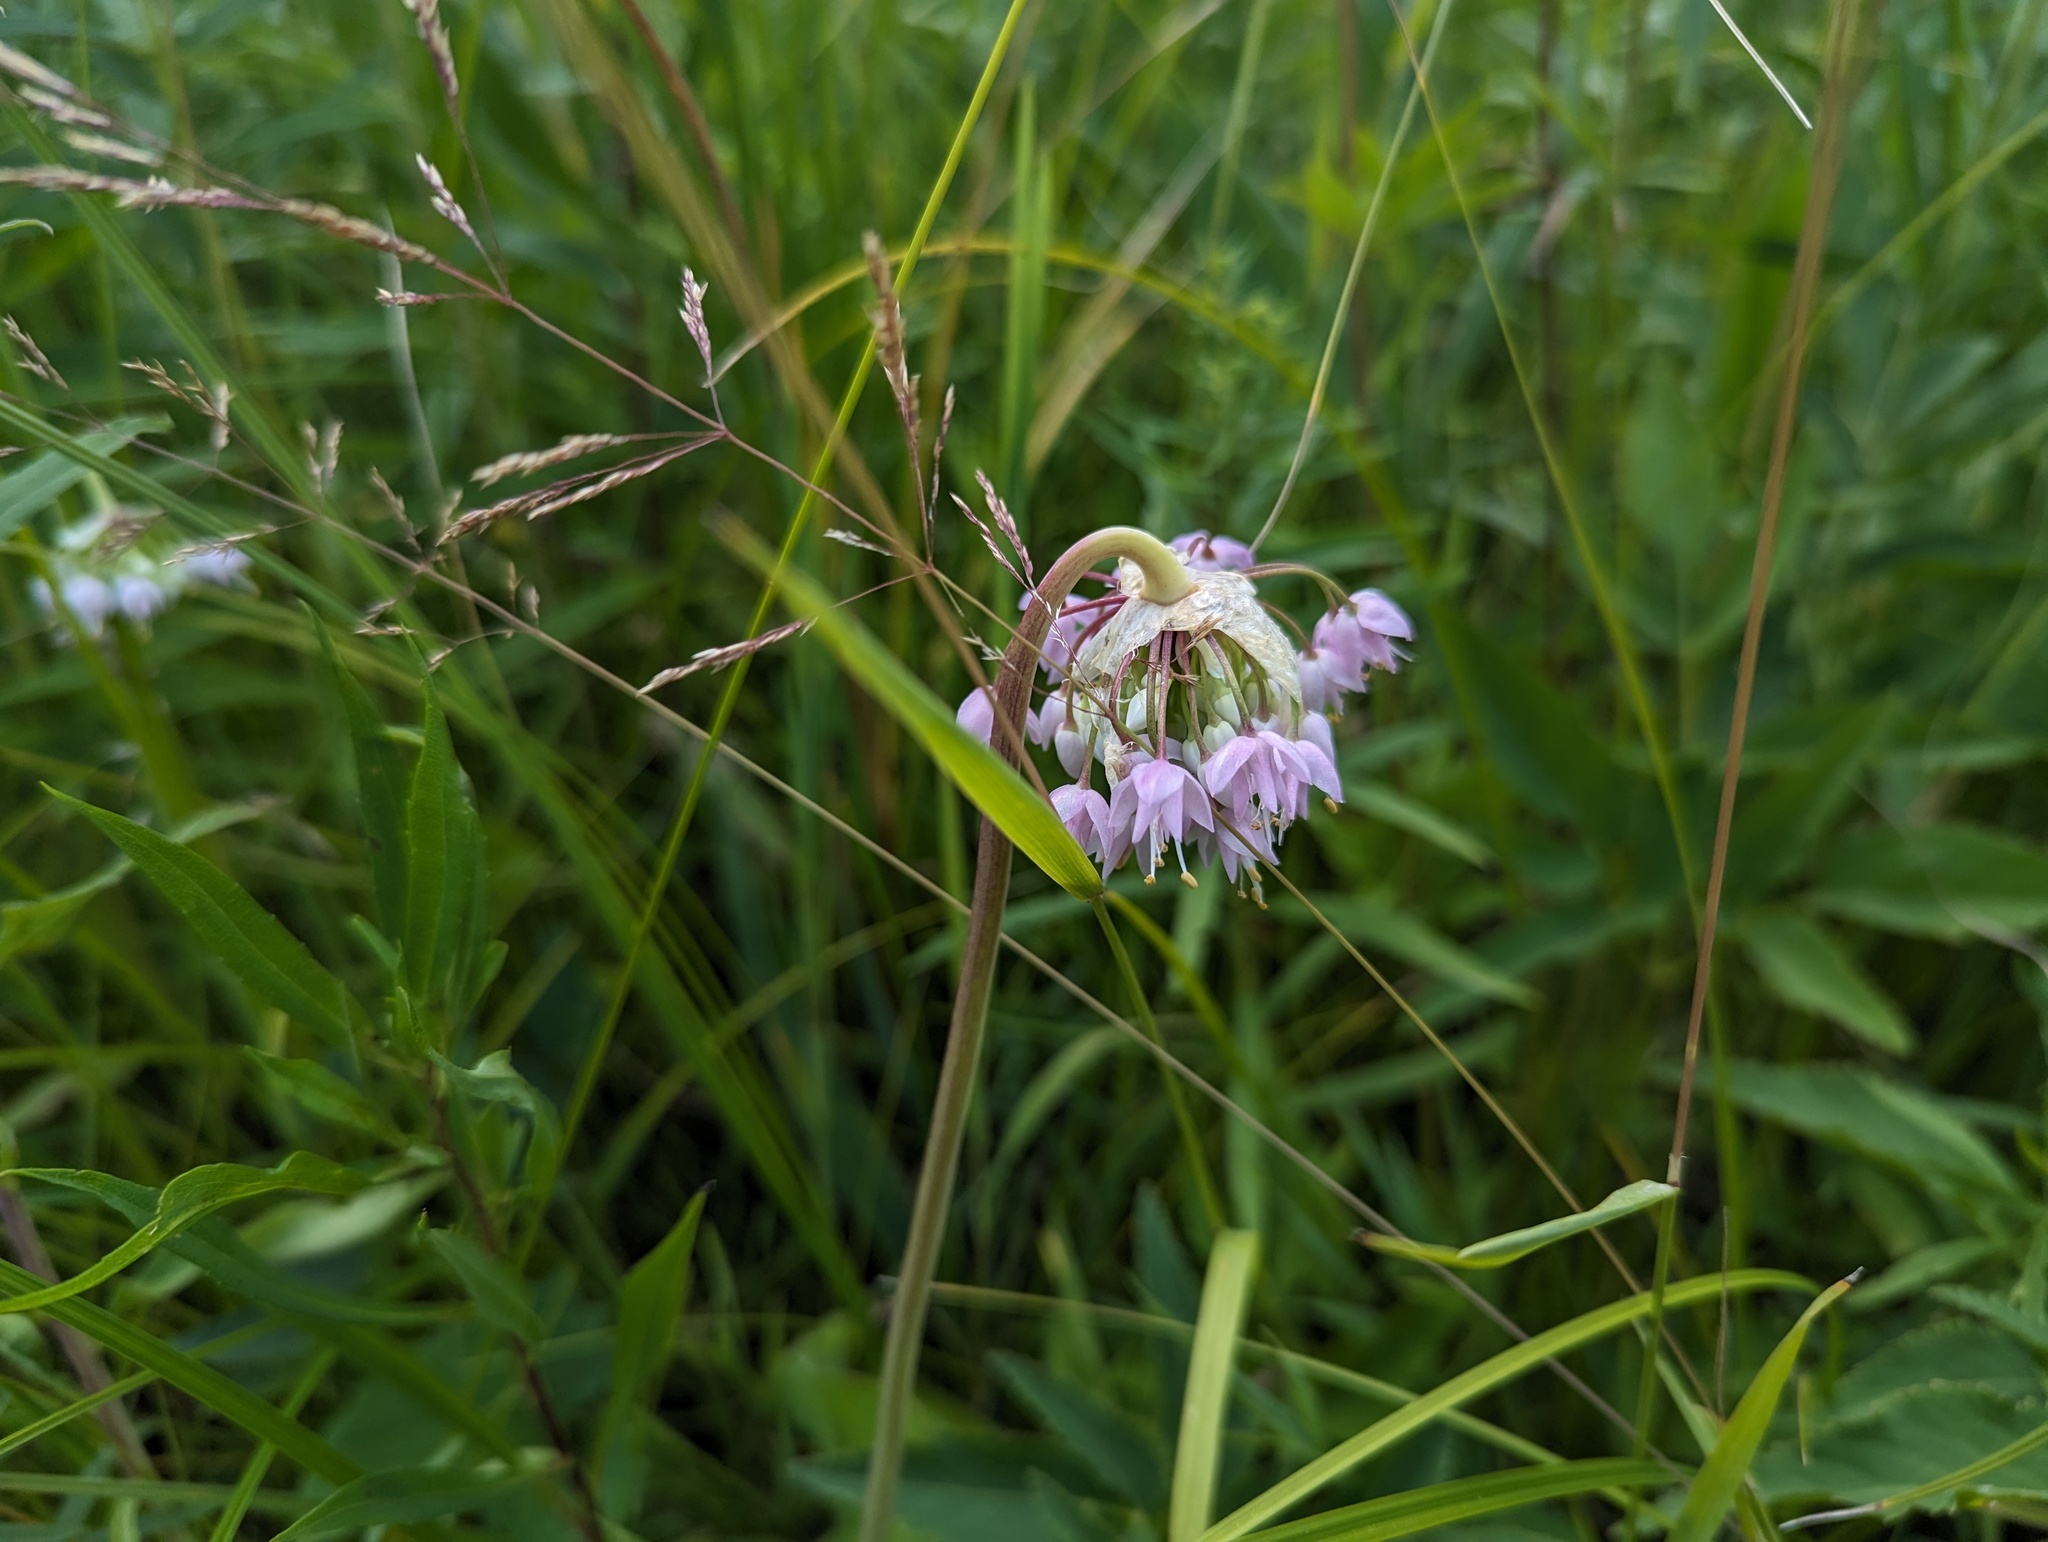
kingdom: Plantae
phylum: Tracheophyta
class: Liliopsida
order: Asparagales
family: Amaryllidaceae
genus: Allium
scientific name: Allium cernuum
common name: Nodding onion
